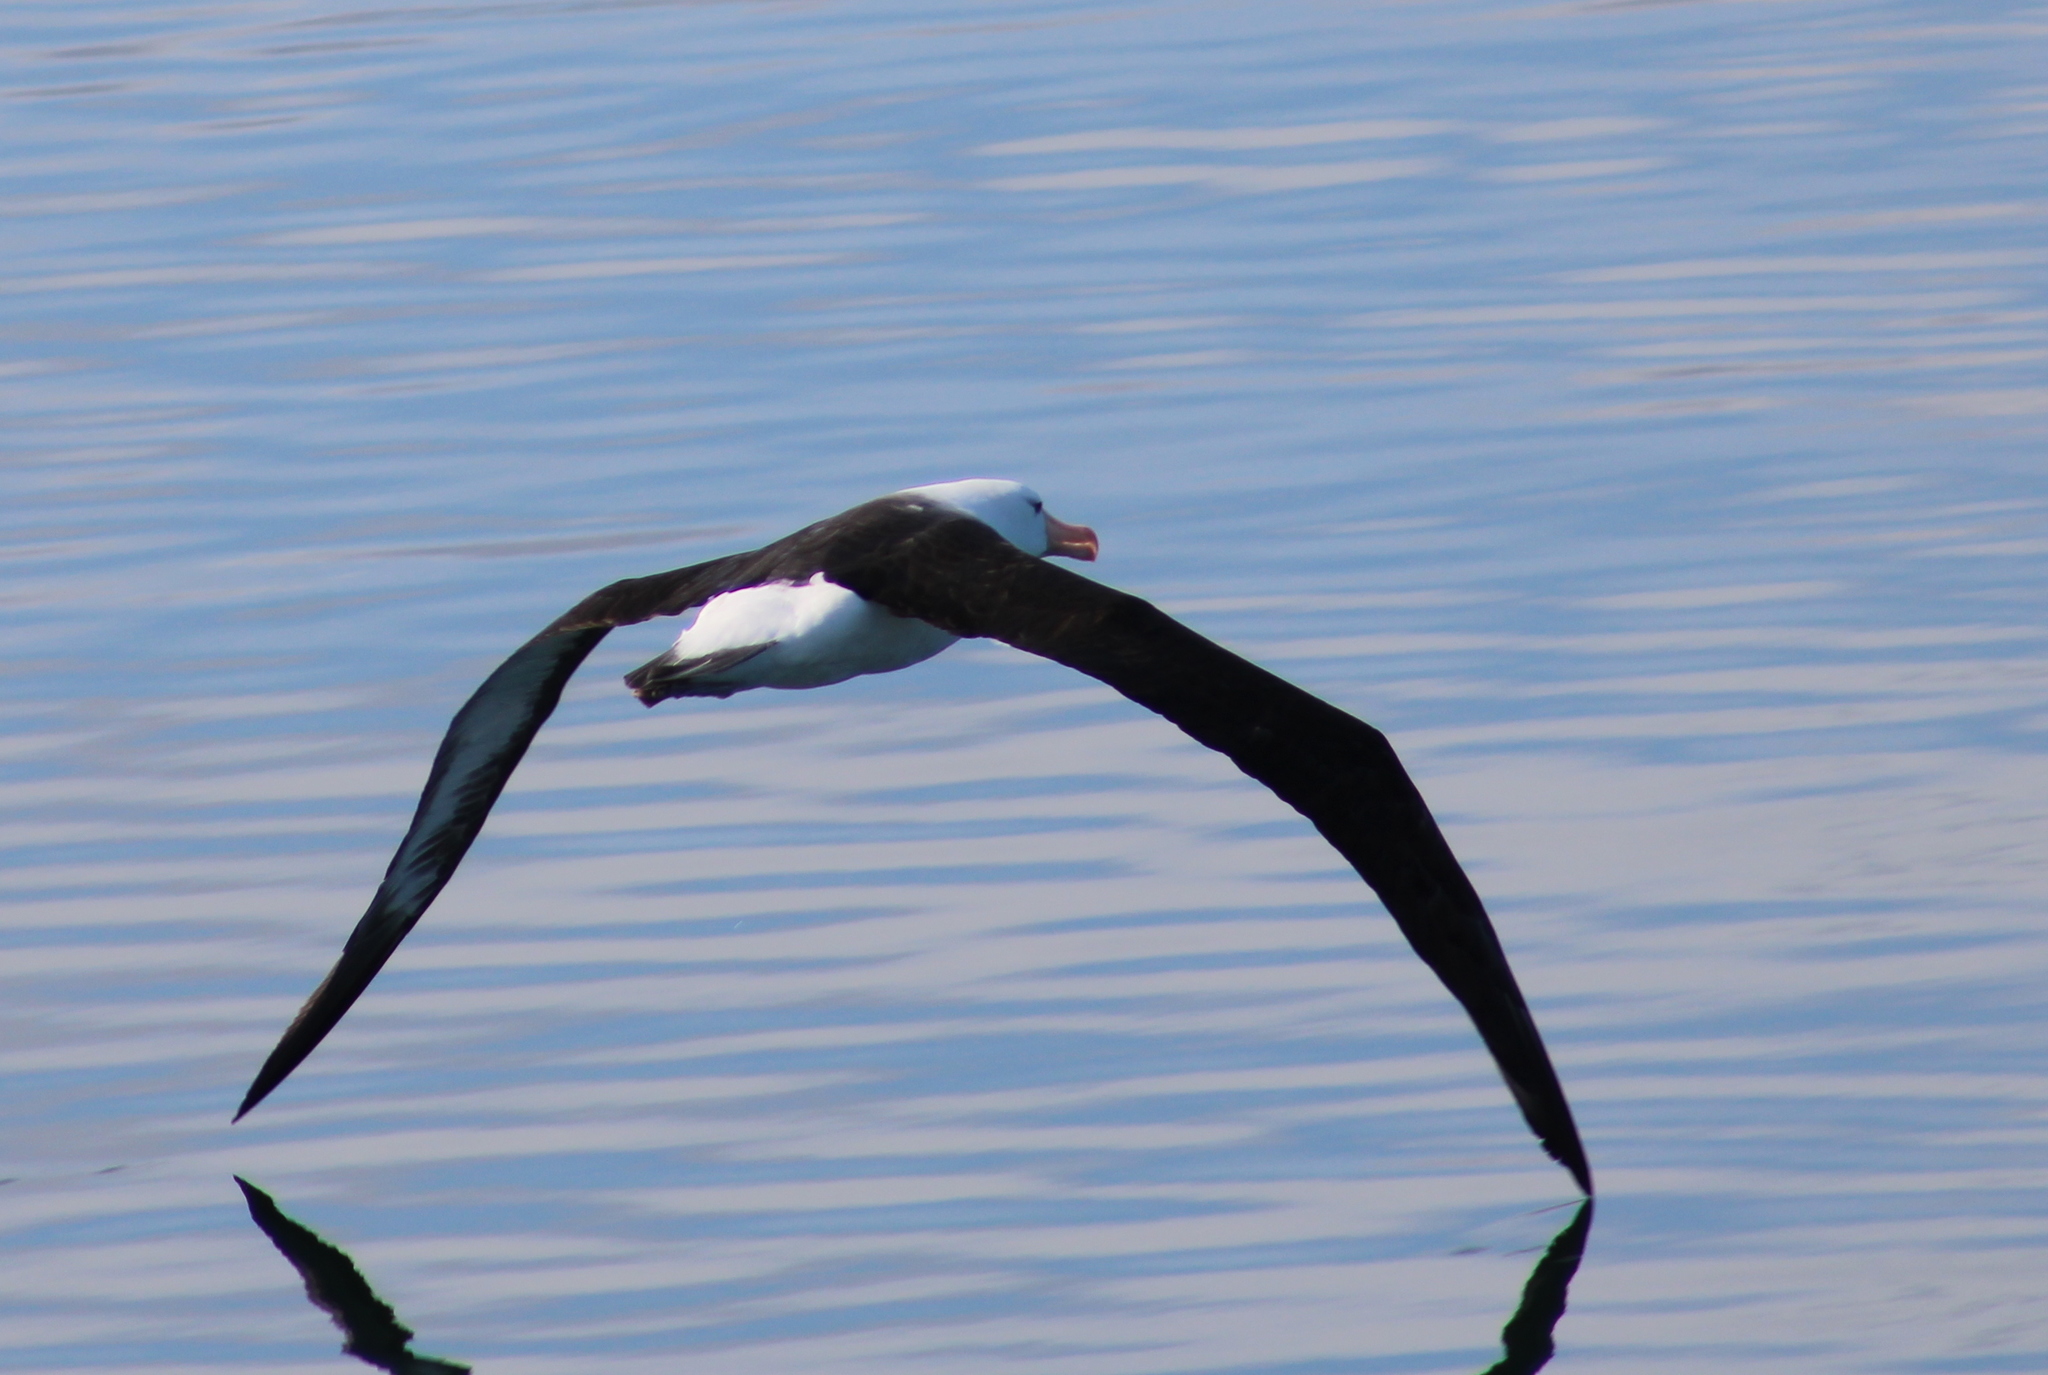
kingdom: Animalia
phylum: Chordata
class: Aves
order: Procellariiformes
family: Diomedeidae
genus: Thalassarche
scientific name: Thalassarche melanophris
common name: Black-browed albatross
